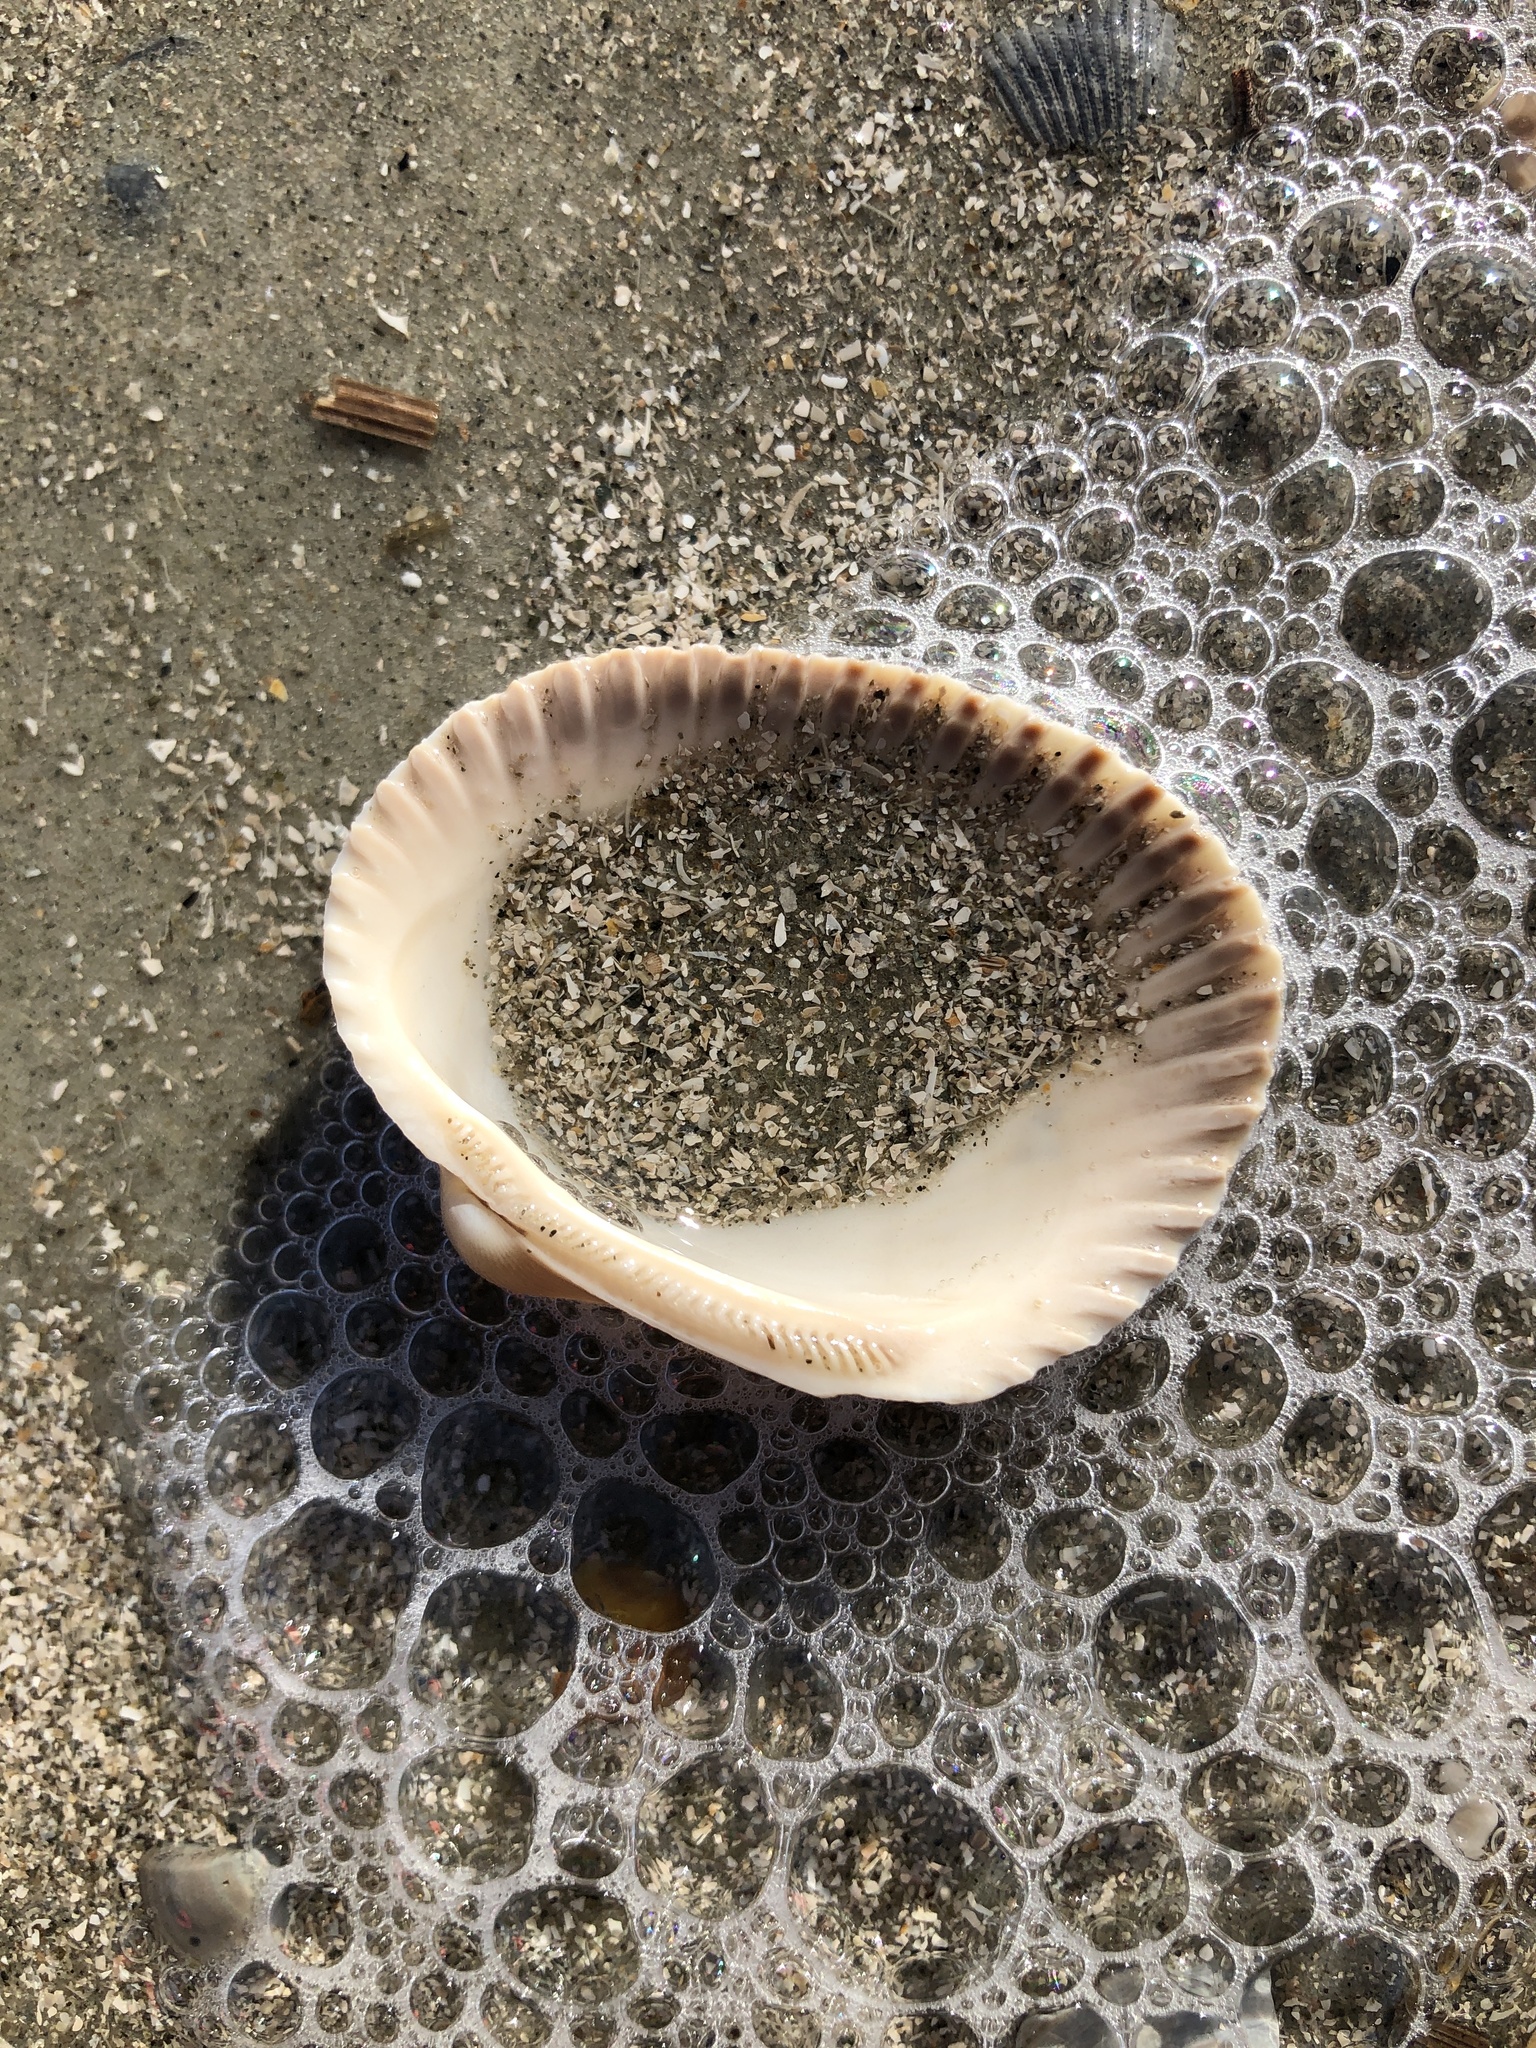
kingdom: Animalia
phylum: Mollusca
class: Bivalvia
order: Arcida
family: Arcidae
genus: Lunarca
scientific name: Lunarca ovalis
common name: Blood ark
